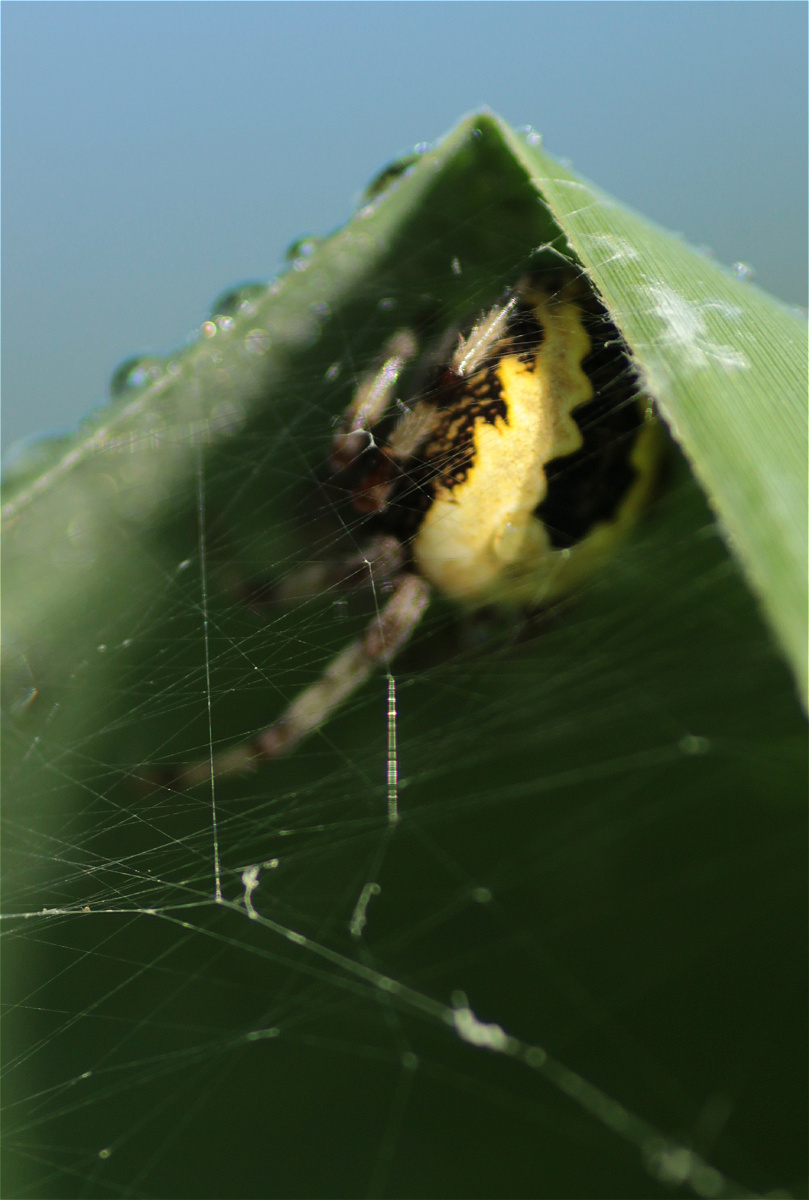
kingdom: Animalia
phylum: Arthropoda
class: Arachnida
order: Araneae
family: Araneidae
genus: Araneus
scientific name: Araneus marmoreus
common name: Marbled orbweaver
